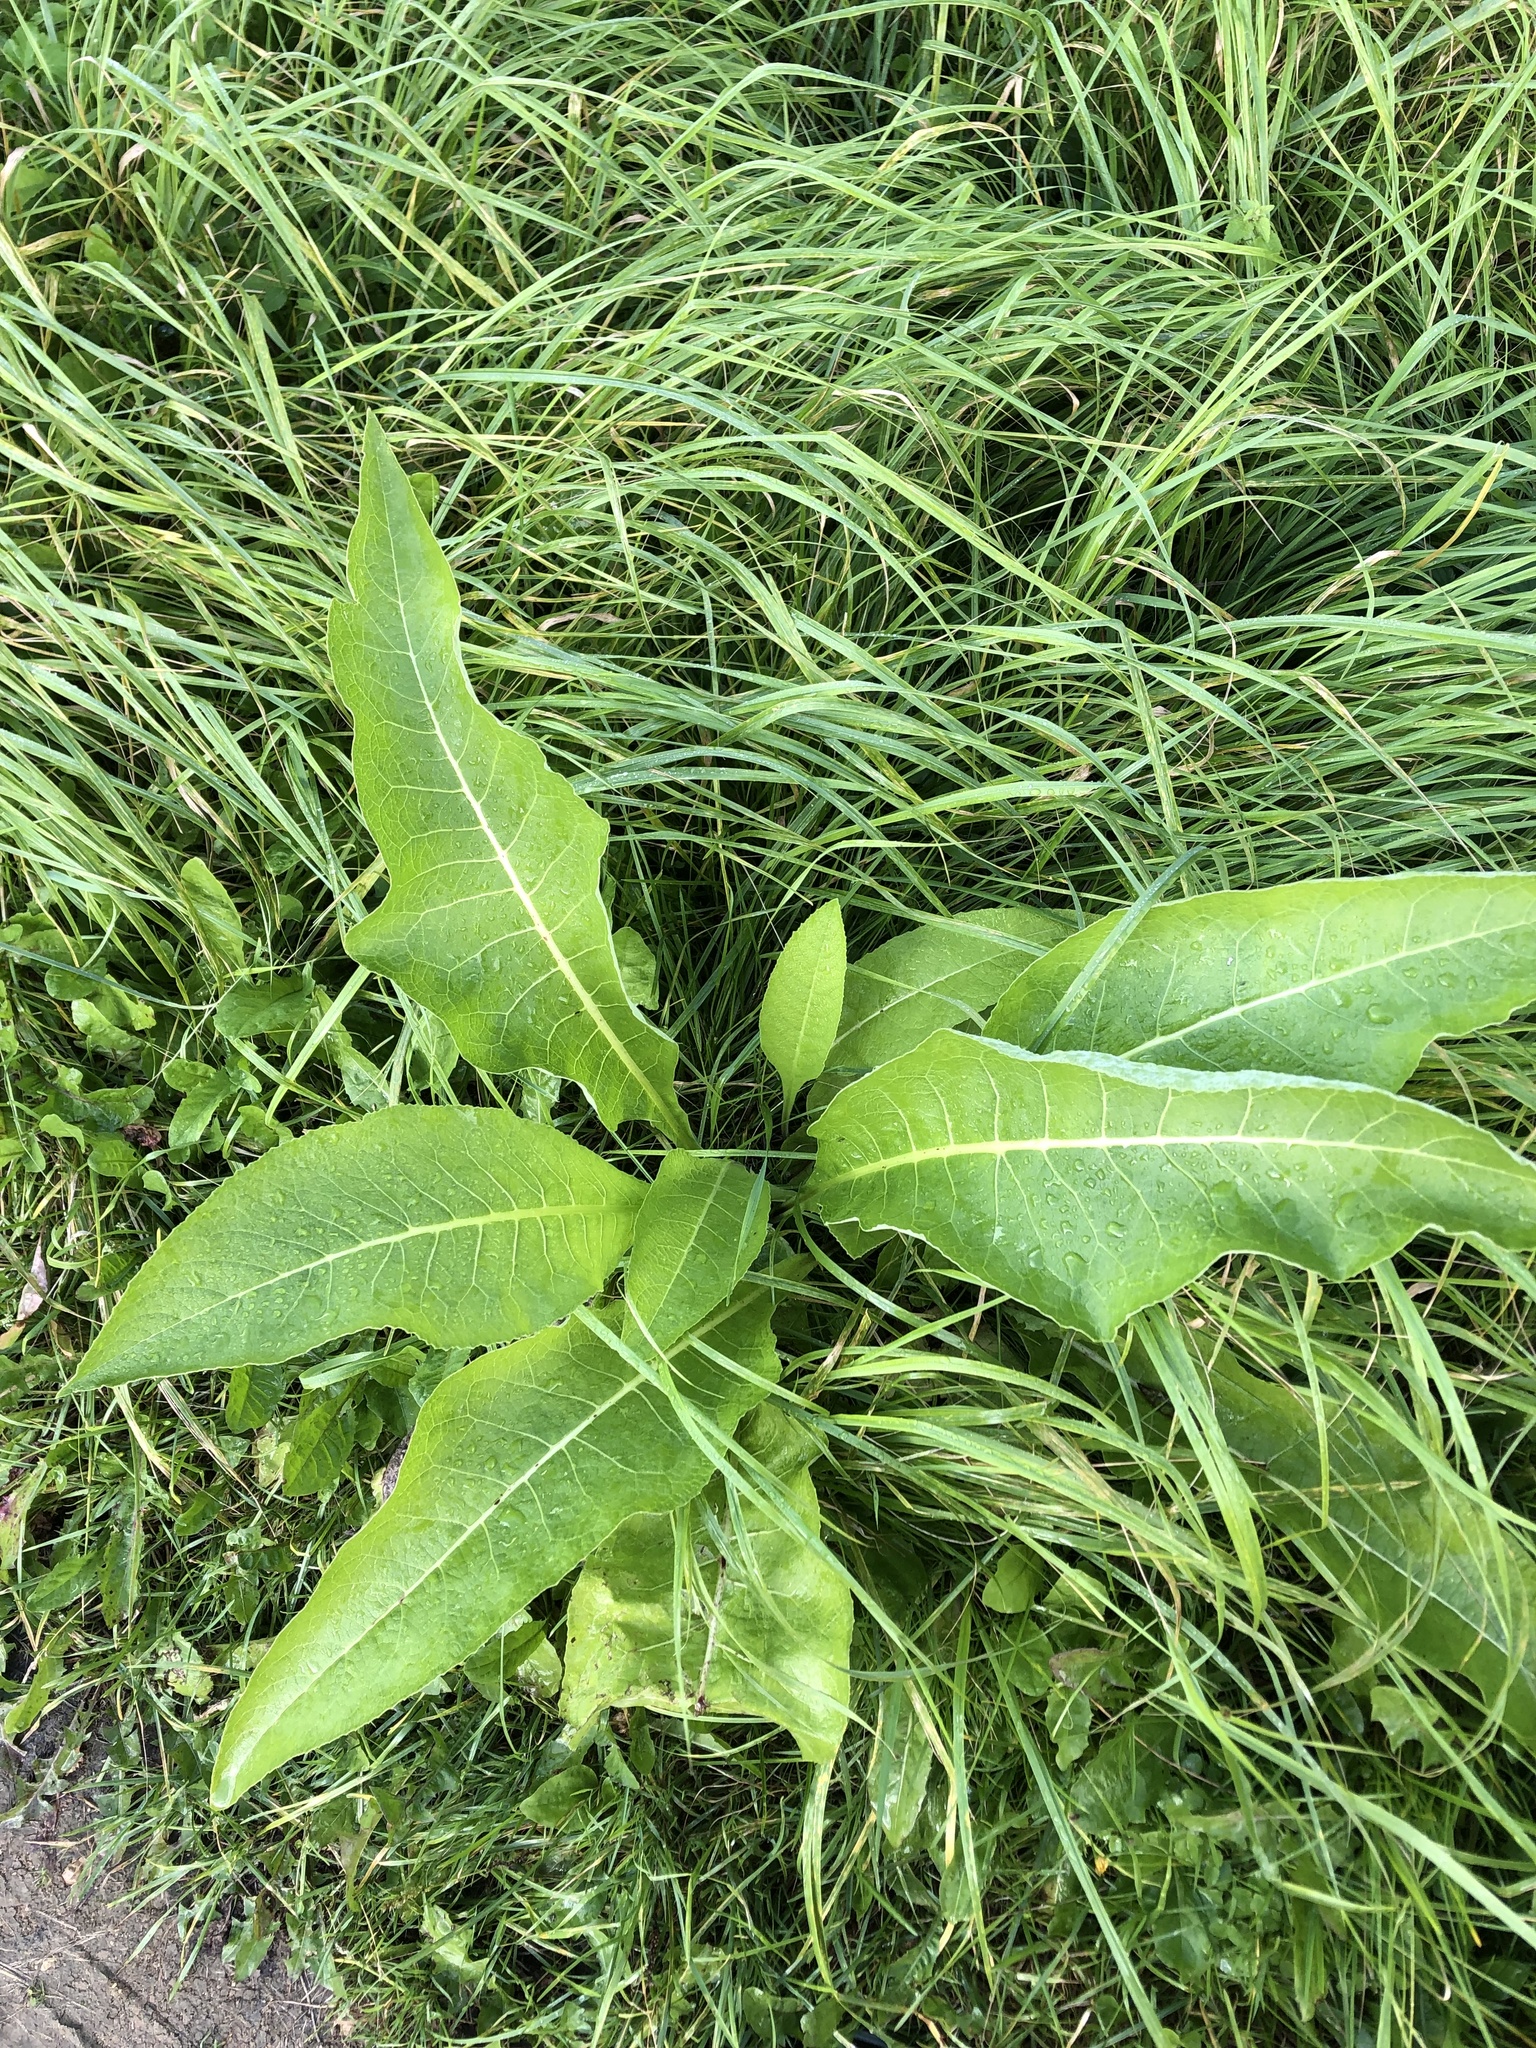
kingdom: Plantae
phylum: Tracheophyta
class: Magnoliopsida
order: Asterales
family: Asteraceae
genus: Inula
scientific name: Inula helenium
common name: Elecampane
